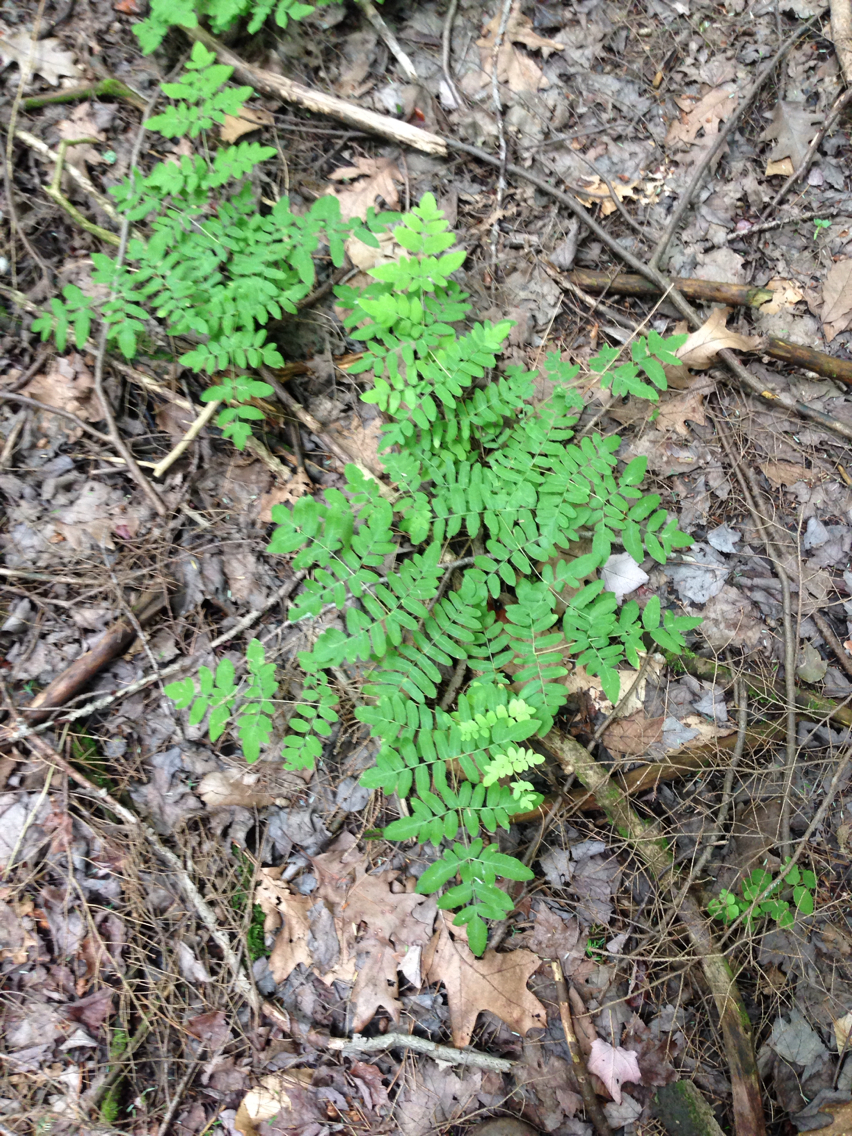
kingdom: Plantae
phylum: Tracheophyta
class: Polypodiopsida
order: Osmundales
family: Osmundaceae
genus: Osmunda
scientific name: Osmunda spectabilis
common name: American royal fern
